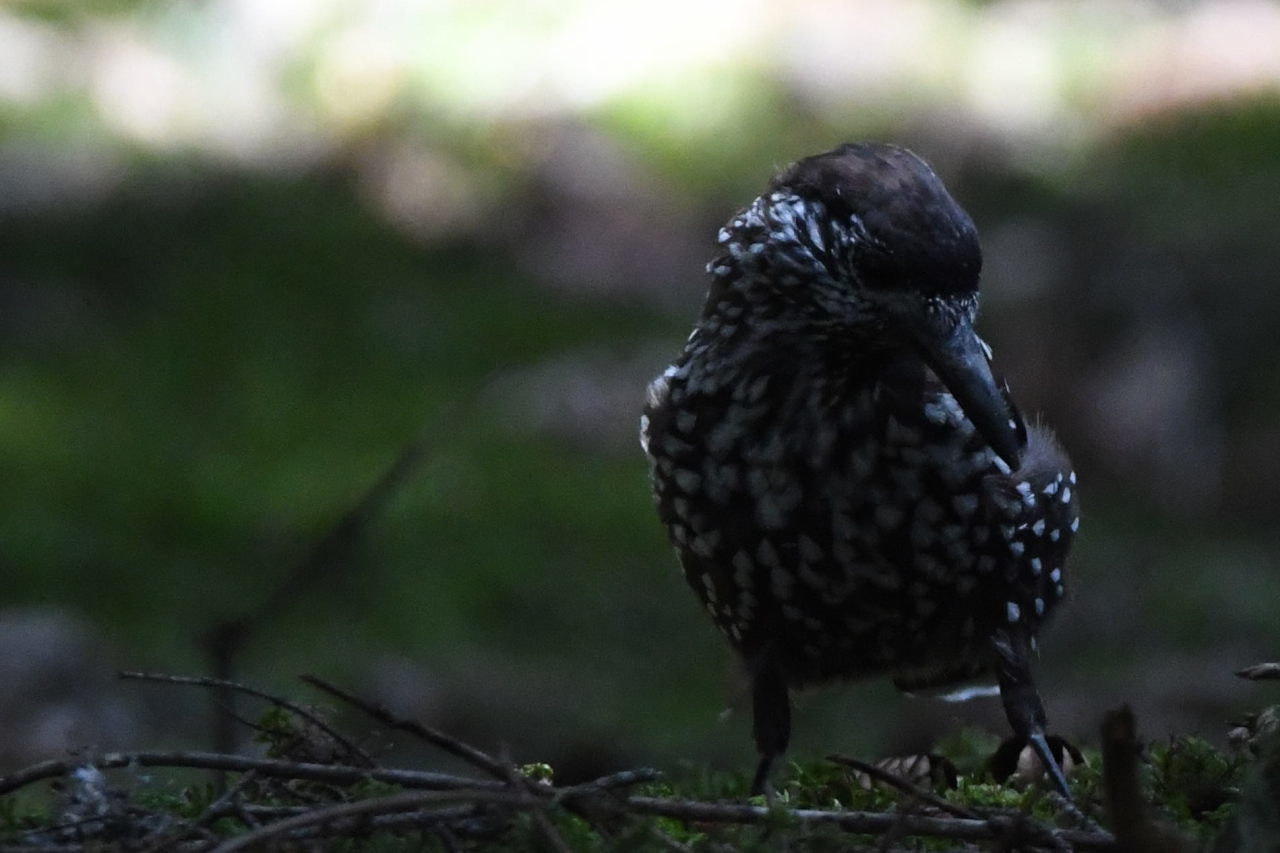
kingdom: Animalia
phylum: Chordata
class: Aves
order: Passeriformes
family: Corvidae
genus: Nucifraga
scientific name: Nucifraga caryocatactes
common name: Spotted nutcracker
